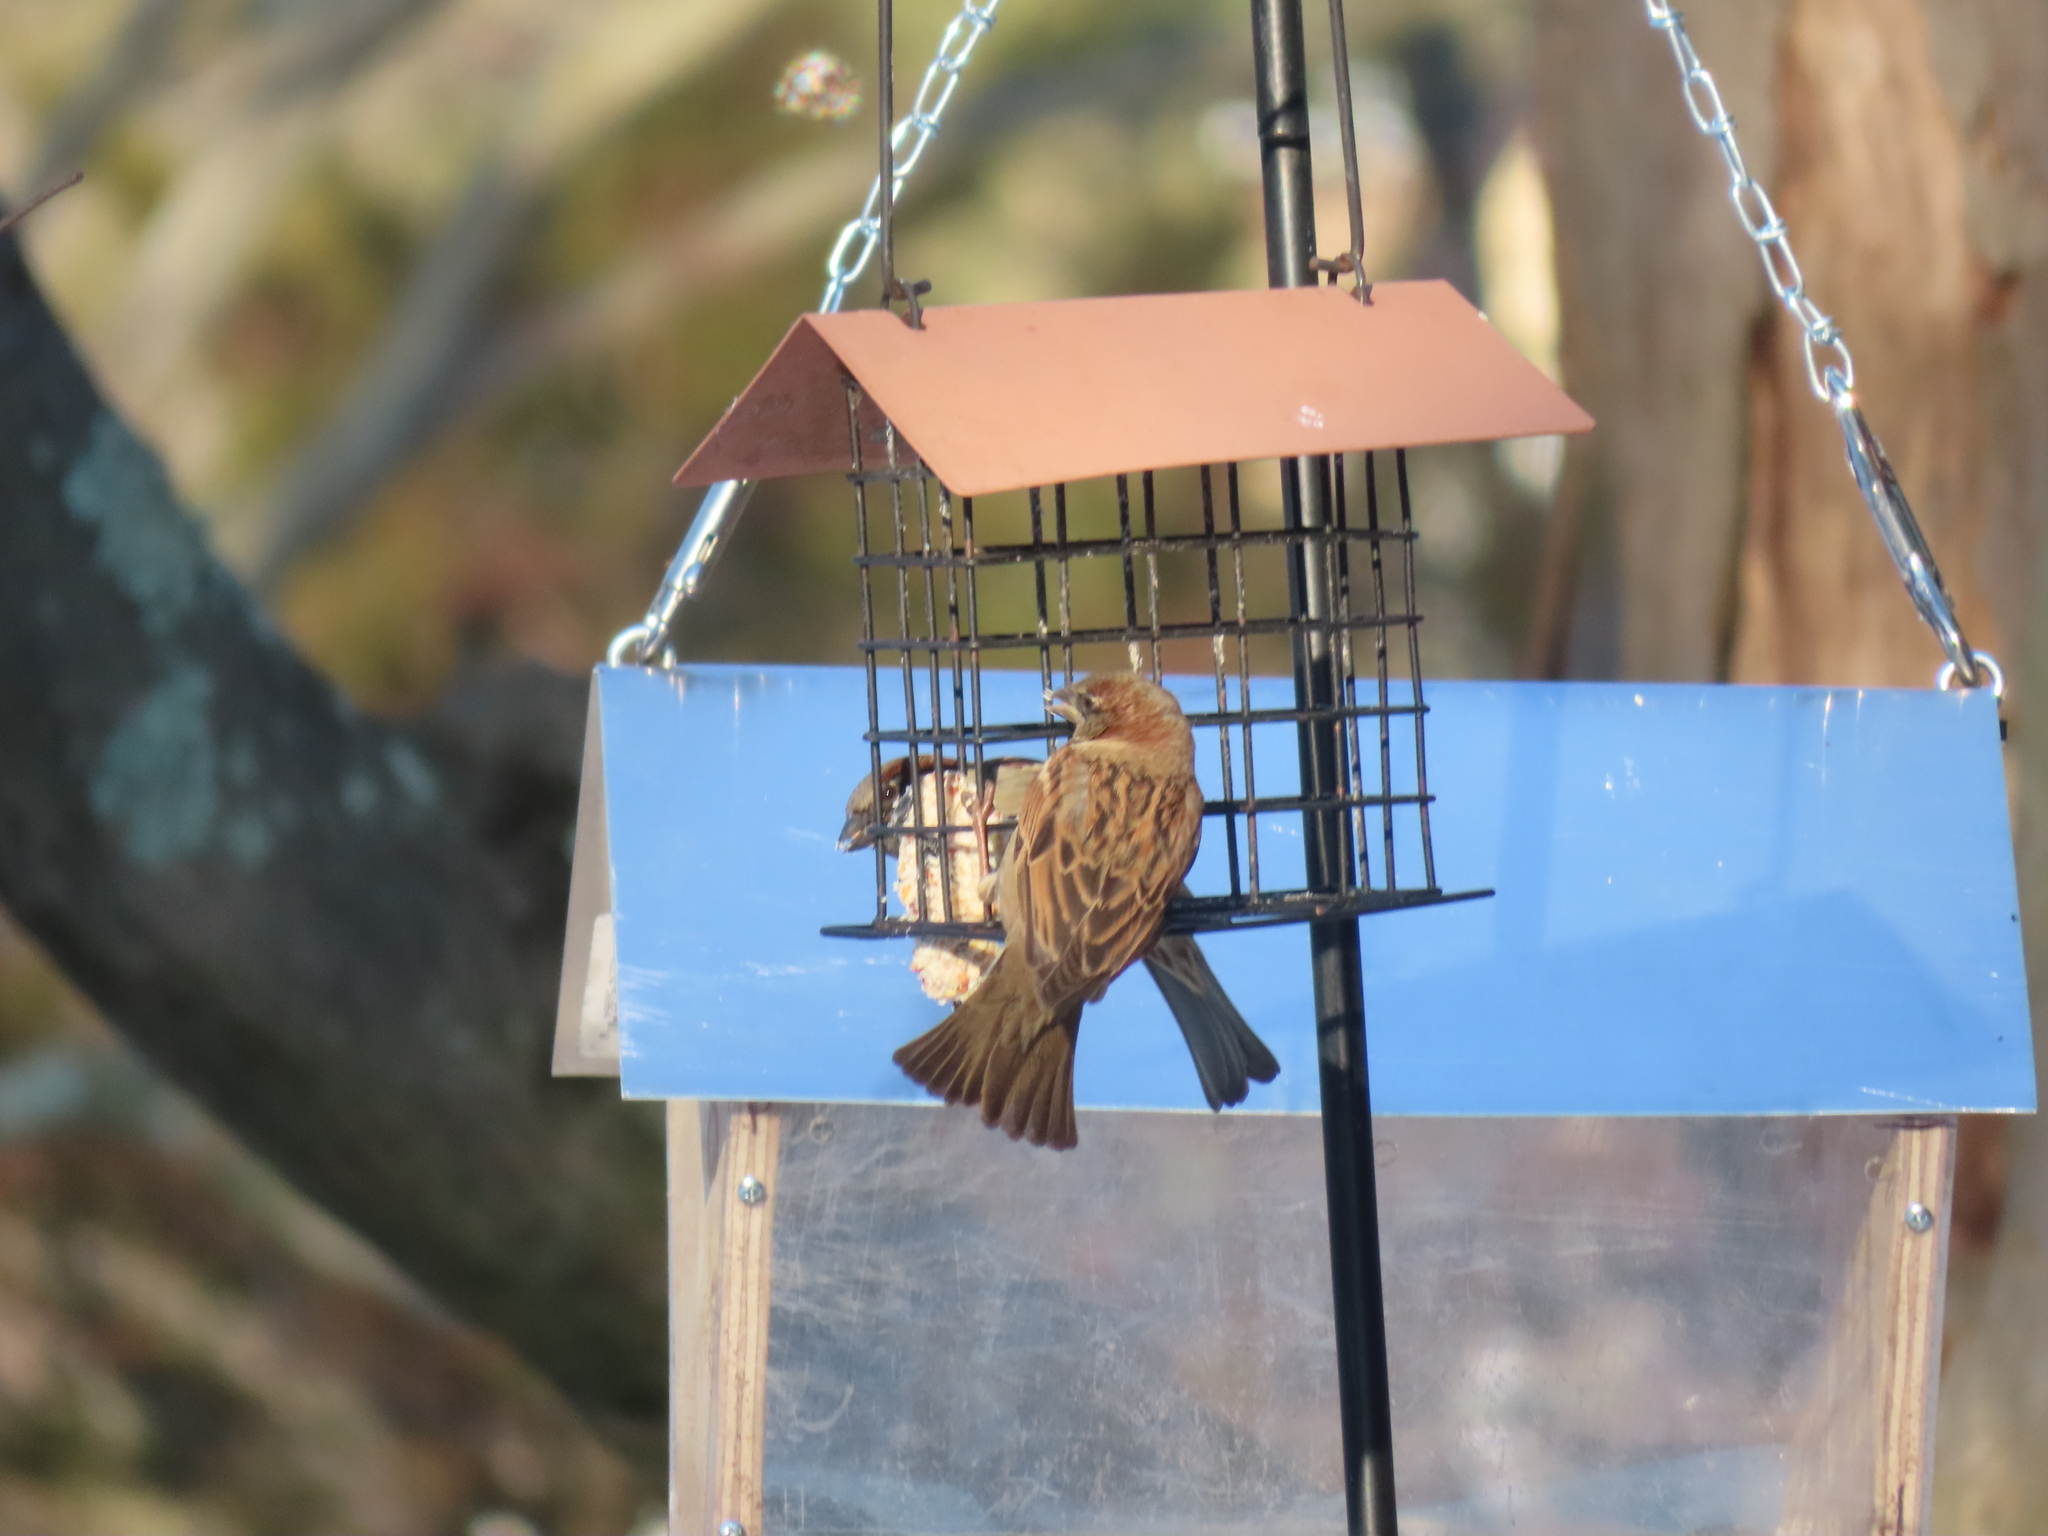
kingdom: Animalia
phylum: Chordata
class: Aves
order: Passeriformes
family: Passeridae
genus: Passer
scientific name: Passer domesticus
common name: House sparrow
